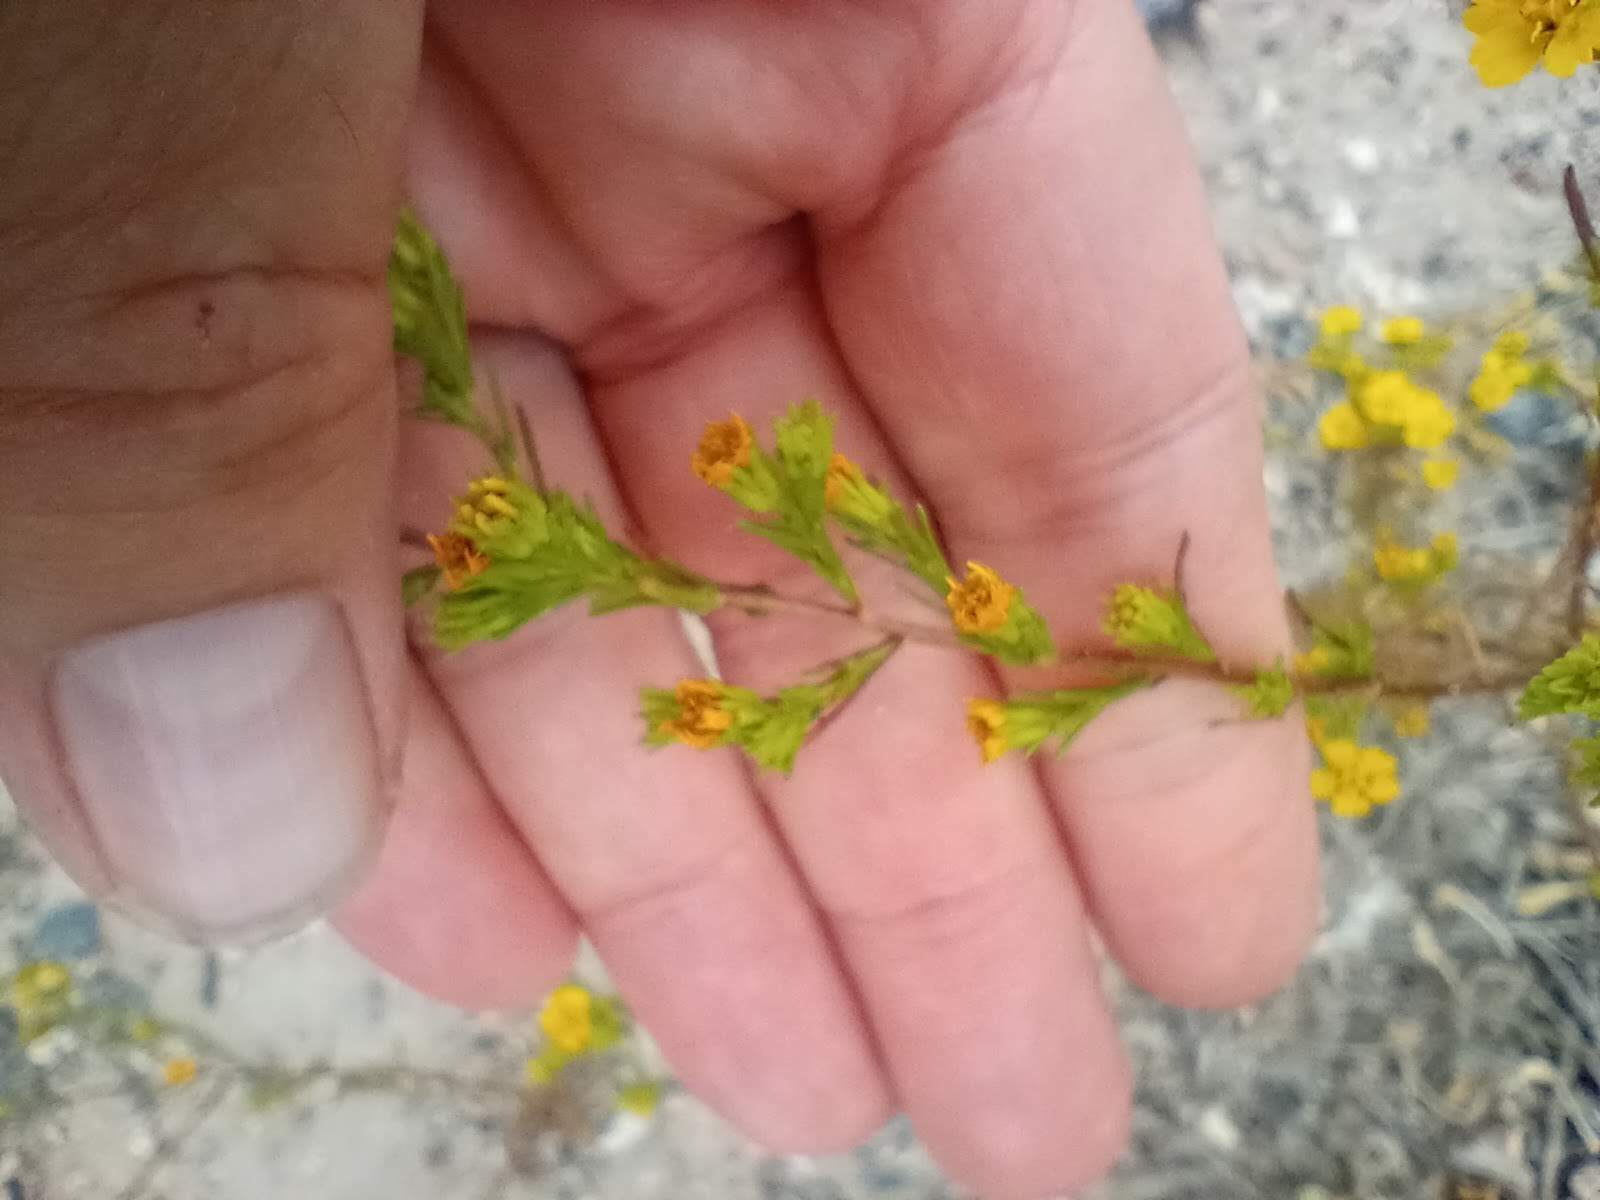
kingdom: Plantae
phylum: Tracheophyta
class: Magnoliopsida
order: Asterales
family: Asteraceae
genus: Deinandra
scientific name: Deinandra fasciculata
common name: Clustered tarweed
